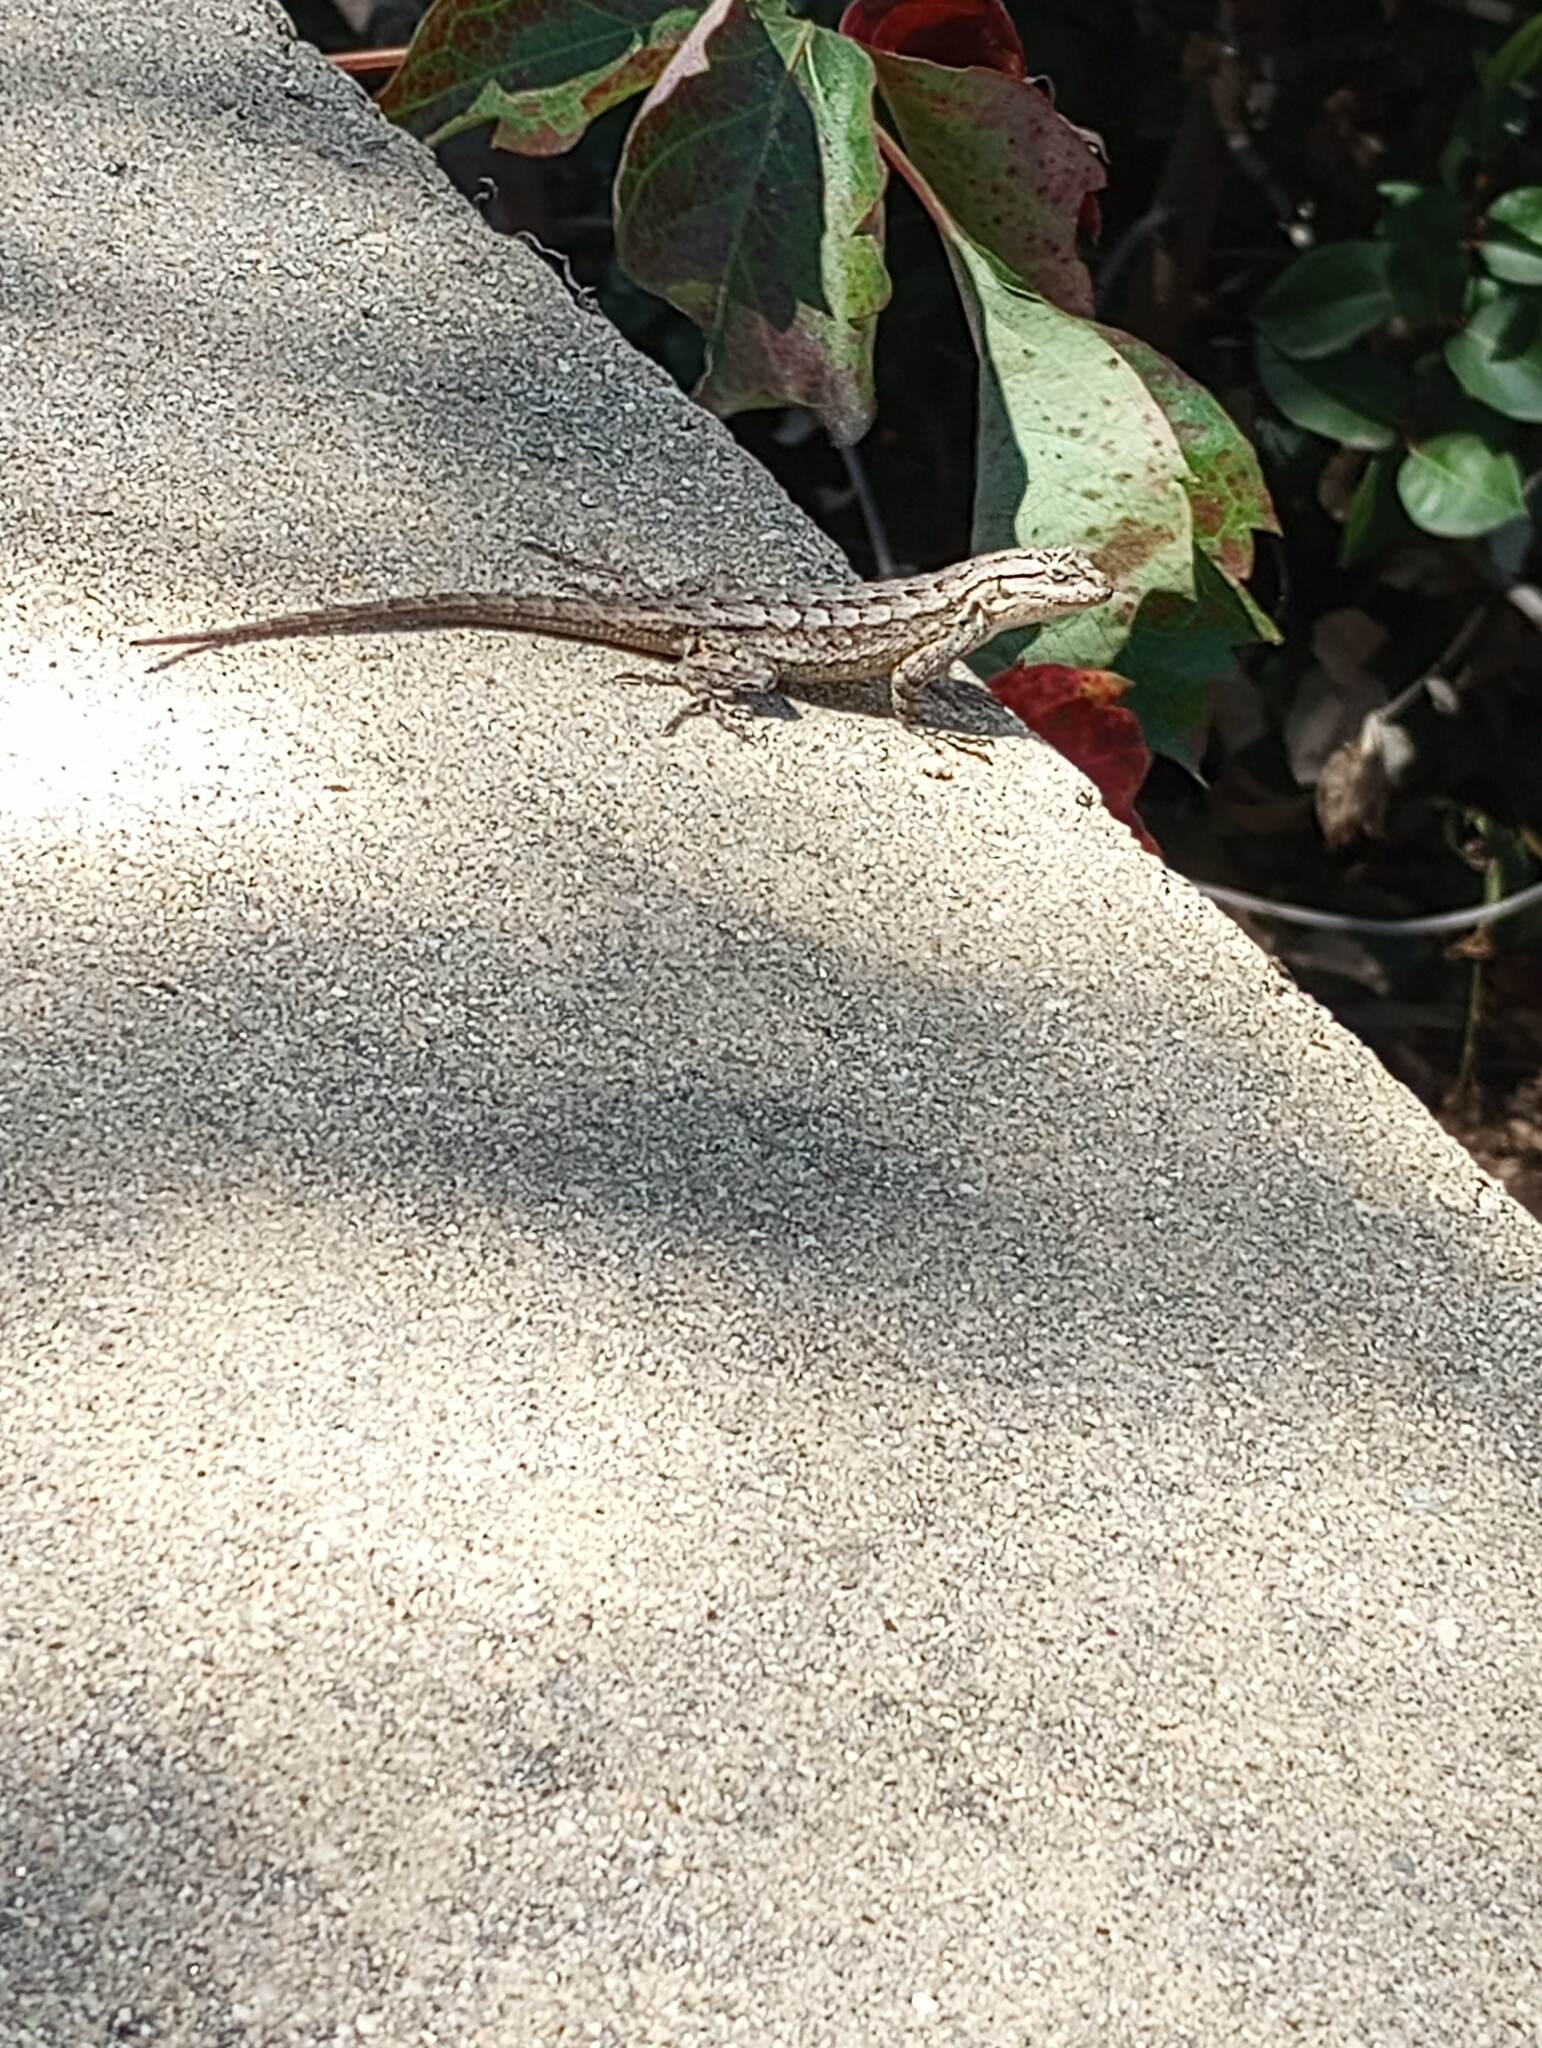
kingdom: Animalia
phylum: Chordata
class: Squamata
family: Phrynosomatidae
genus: Sceloporus
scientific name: Sceloporus occidentalis
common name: Western fence lizard
